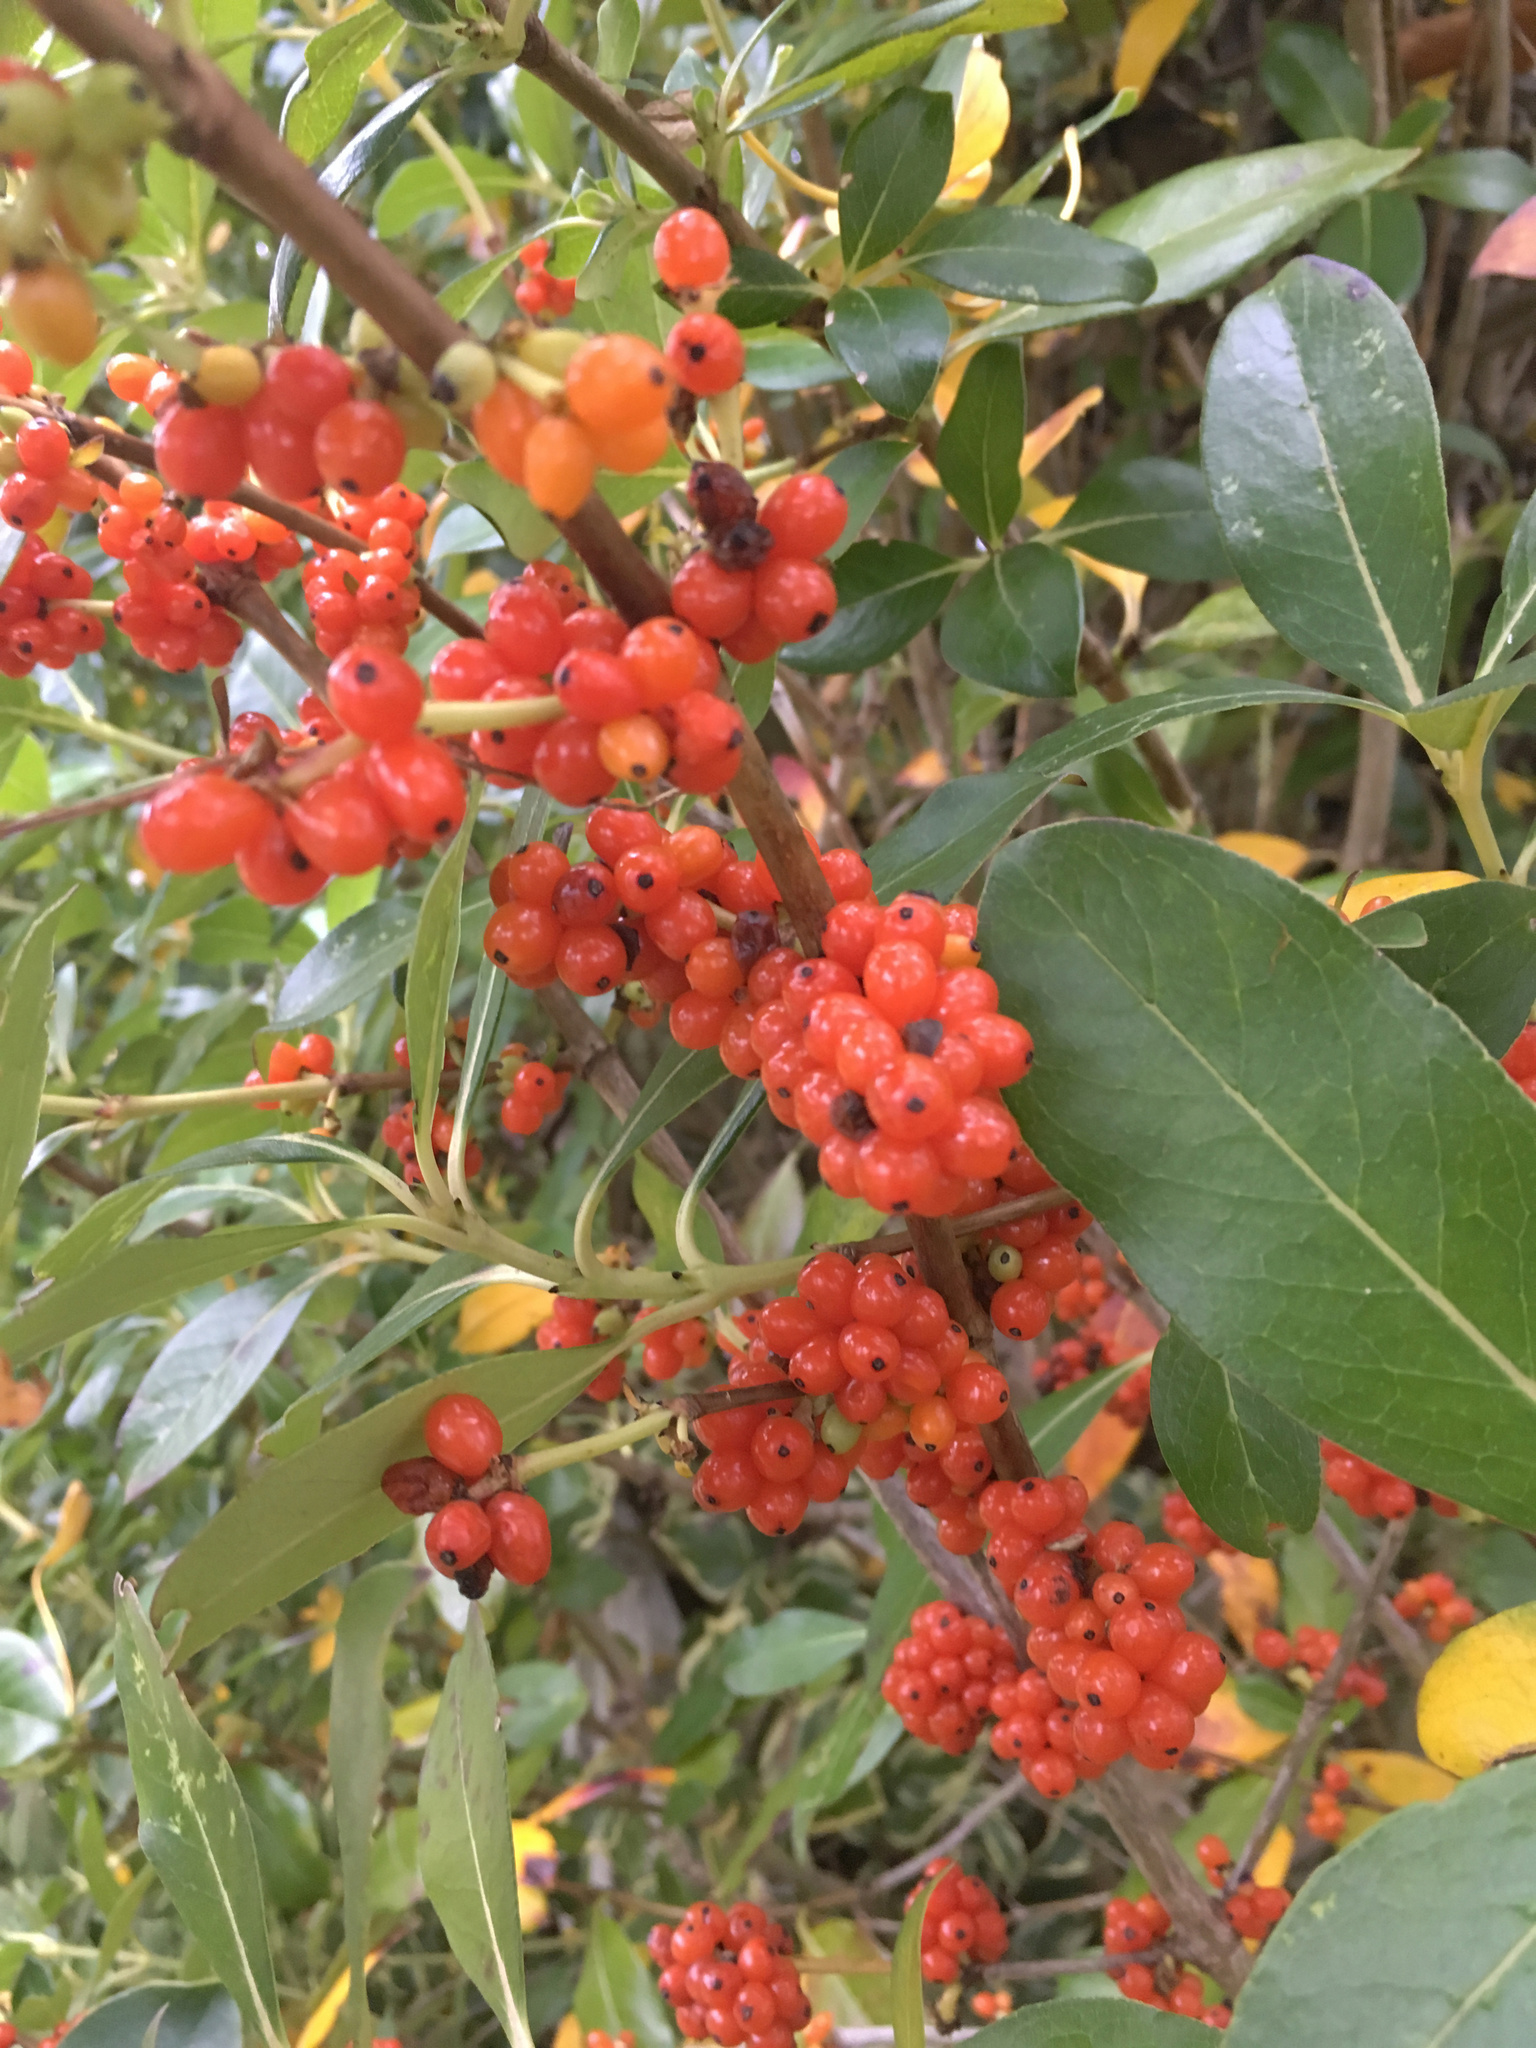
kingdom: Plantae
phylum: Tracheophyta
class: Magnoliopsida
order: Gentianales
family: Rubiaceae
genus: Coprosma
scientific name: Coprosma robusta
